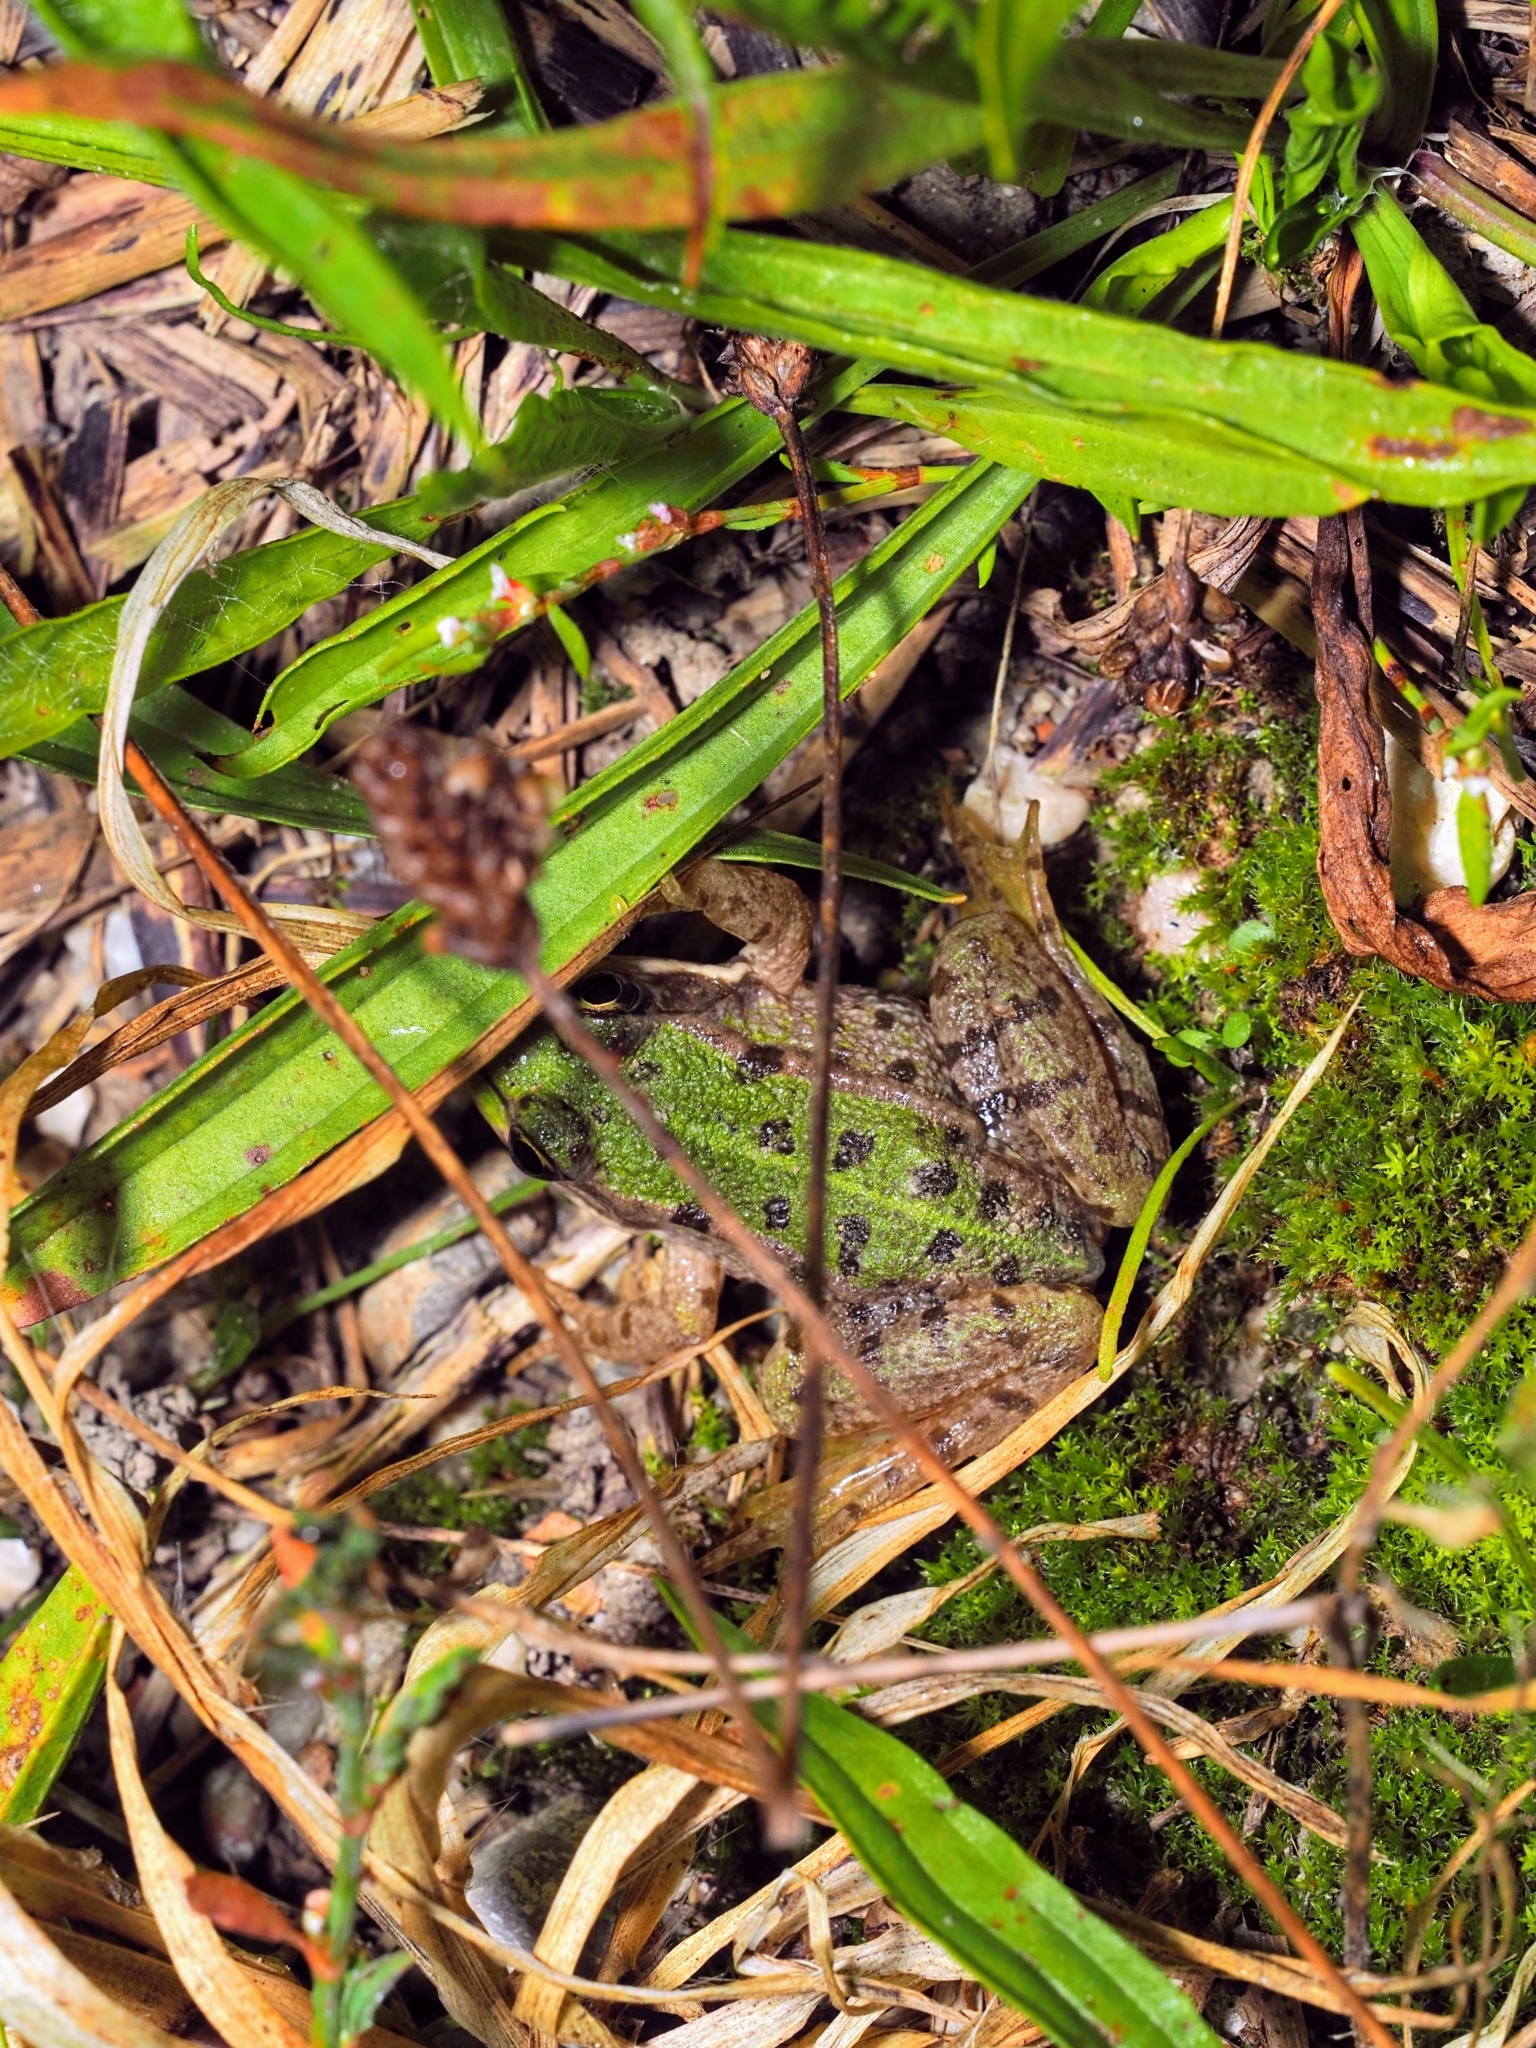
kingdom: Animalia
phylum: Chordata
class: Amphibia
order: Anura
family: Ranidae
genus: Pelophylax
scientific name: Pelophylax
